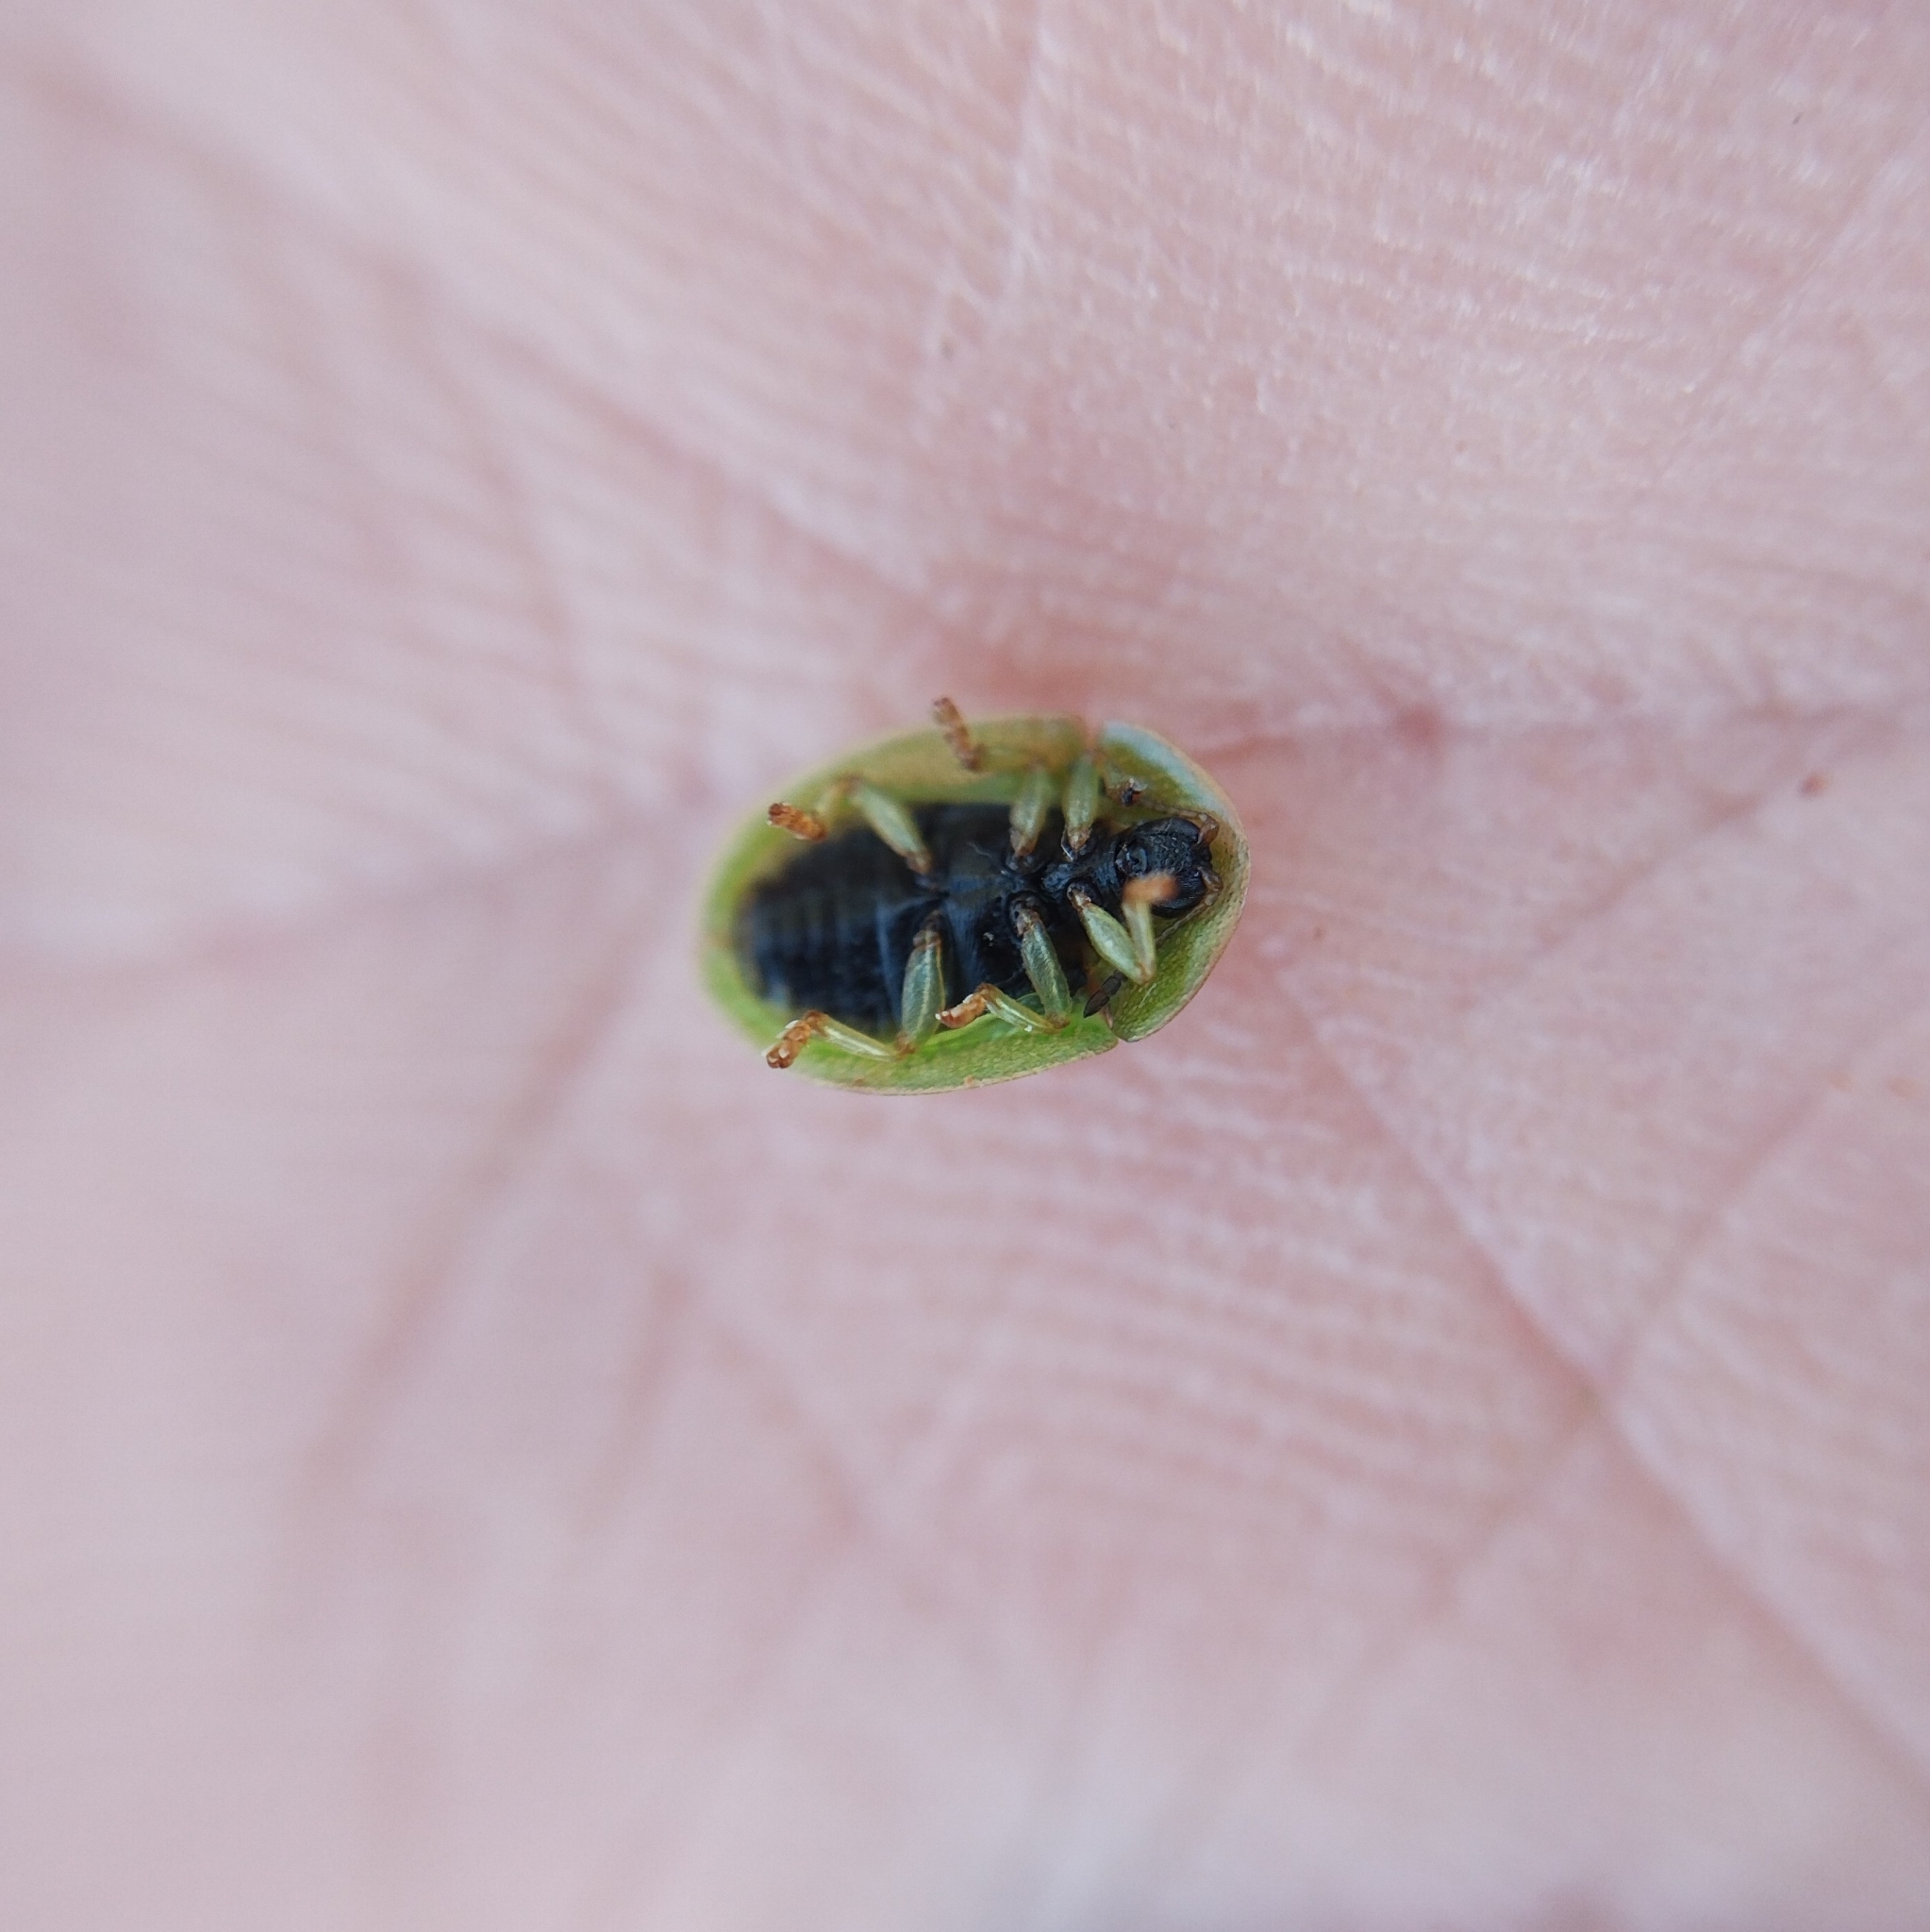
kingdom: Animalia
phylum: Arthropoda
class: Insecta
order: Coleoptera
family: Chrysomelidae
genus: Cassida
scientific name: Cassida sanguinolenta
